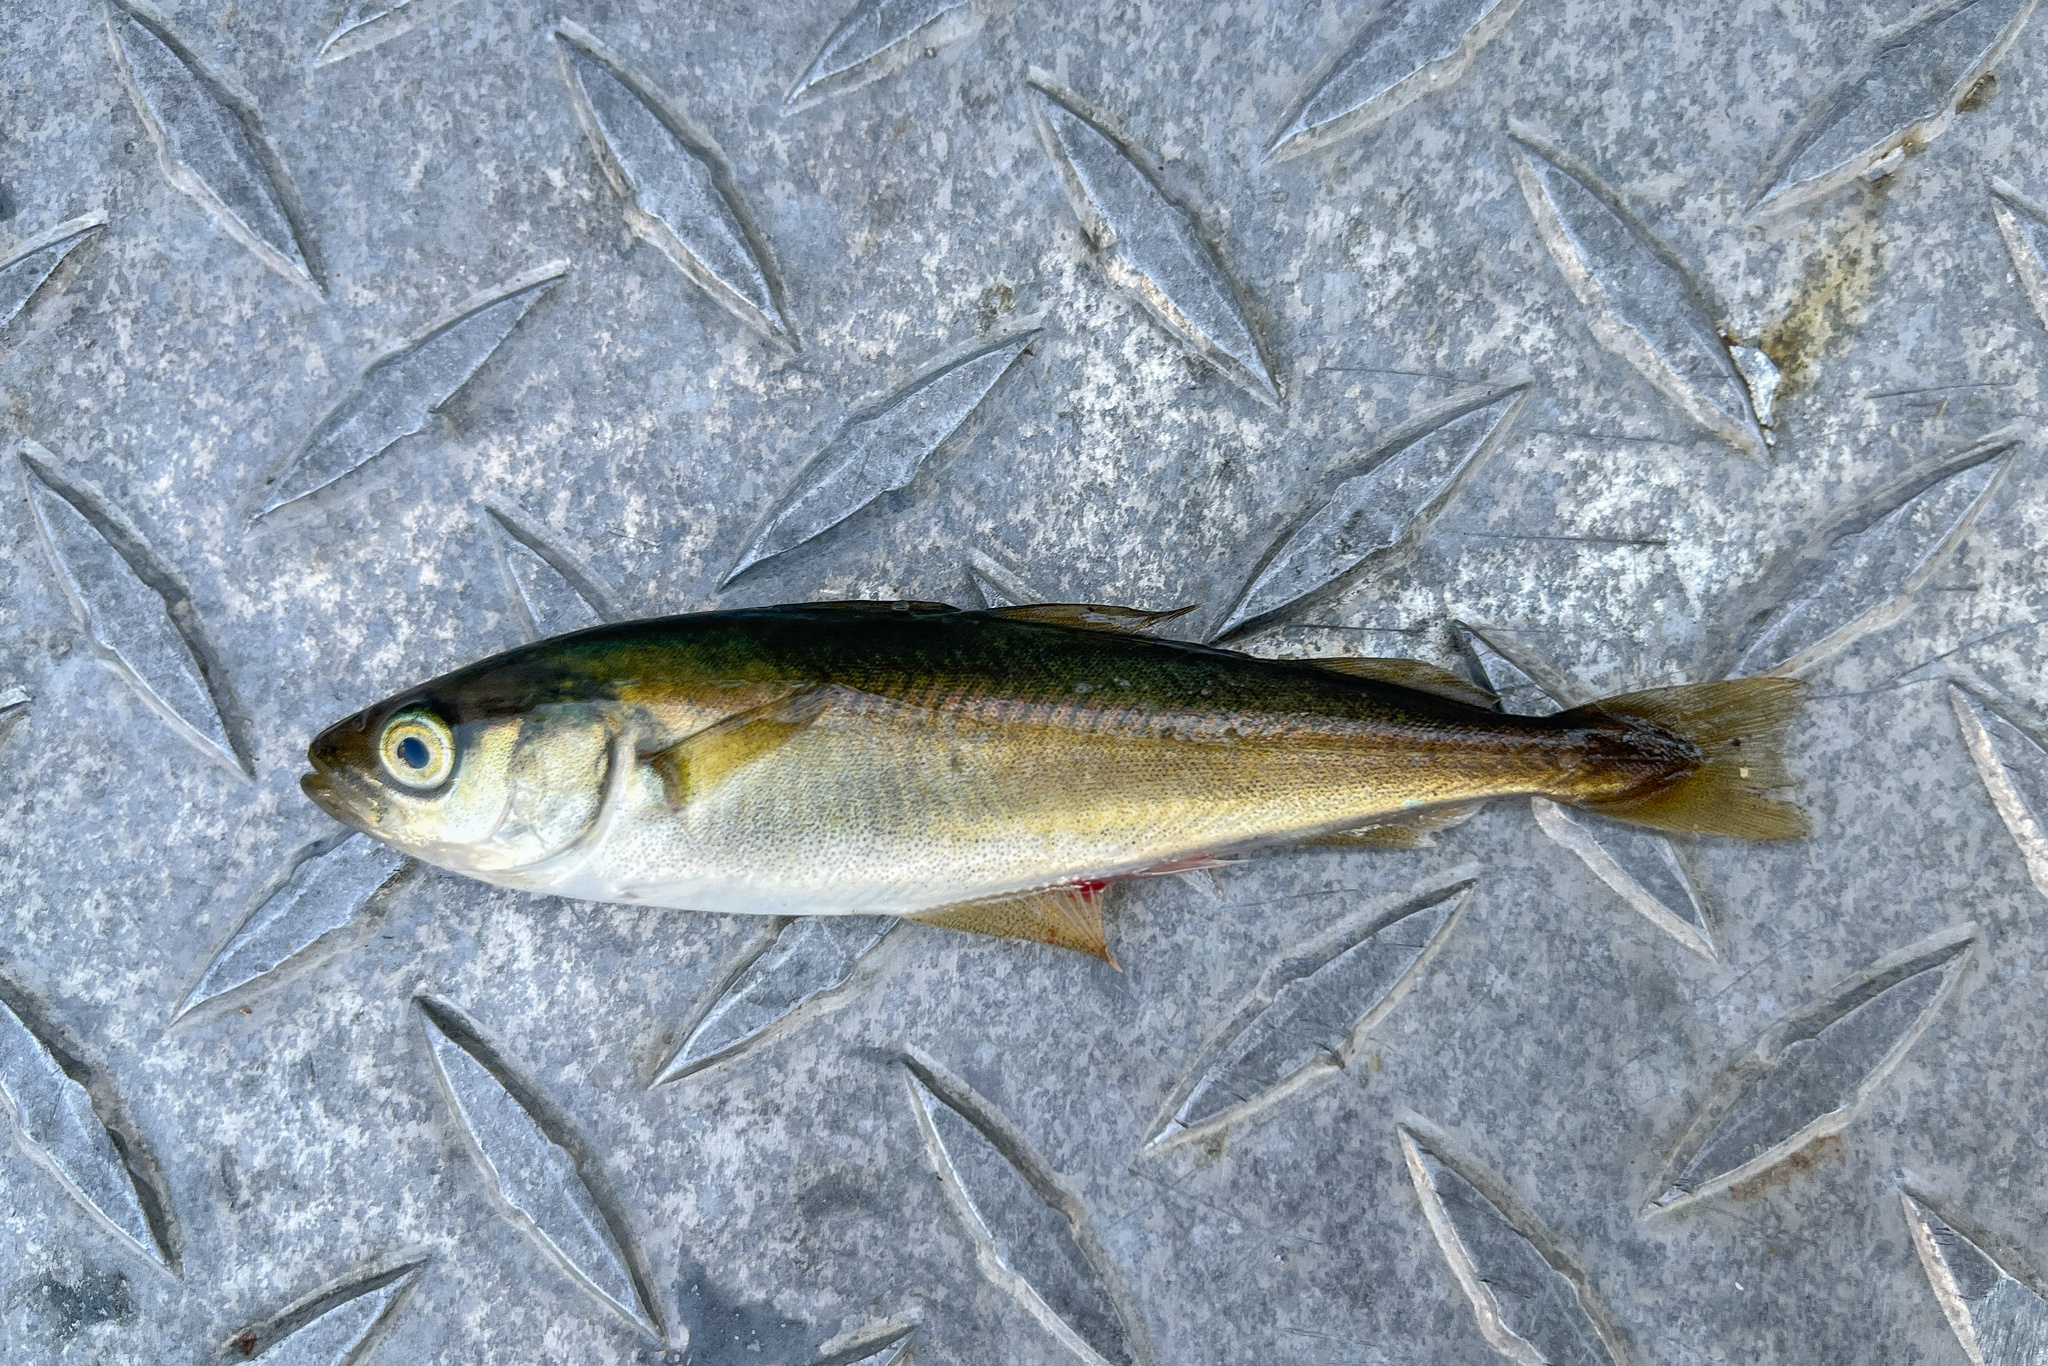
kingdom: Animalia
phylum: Chordata
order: Gadiformes
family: Gadidae
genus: Pollachius
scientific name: Pollachius pollachius
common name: Pollack
